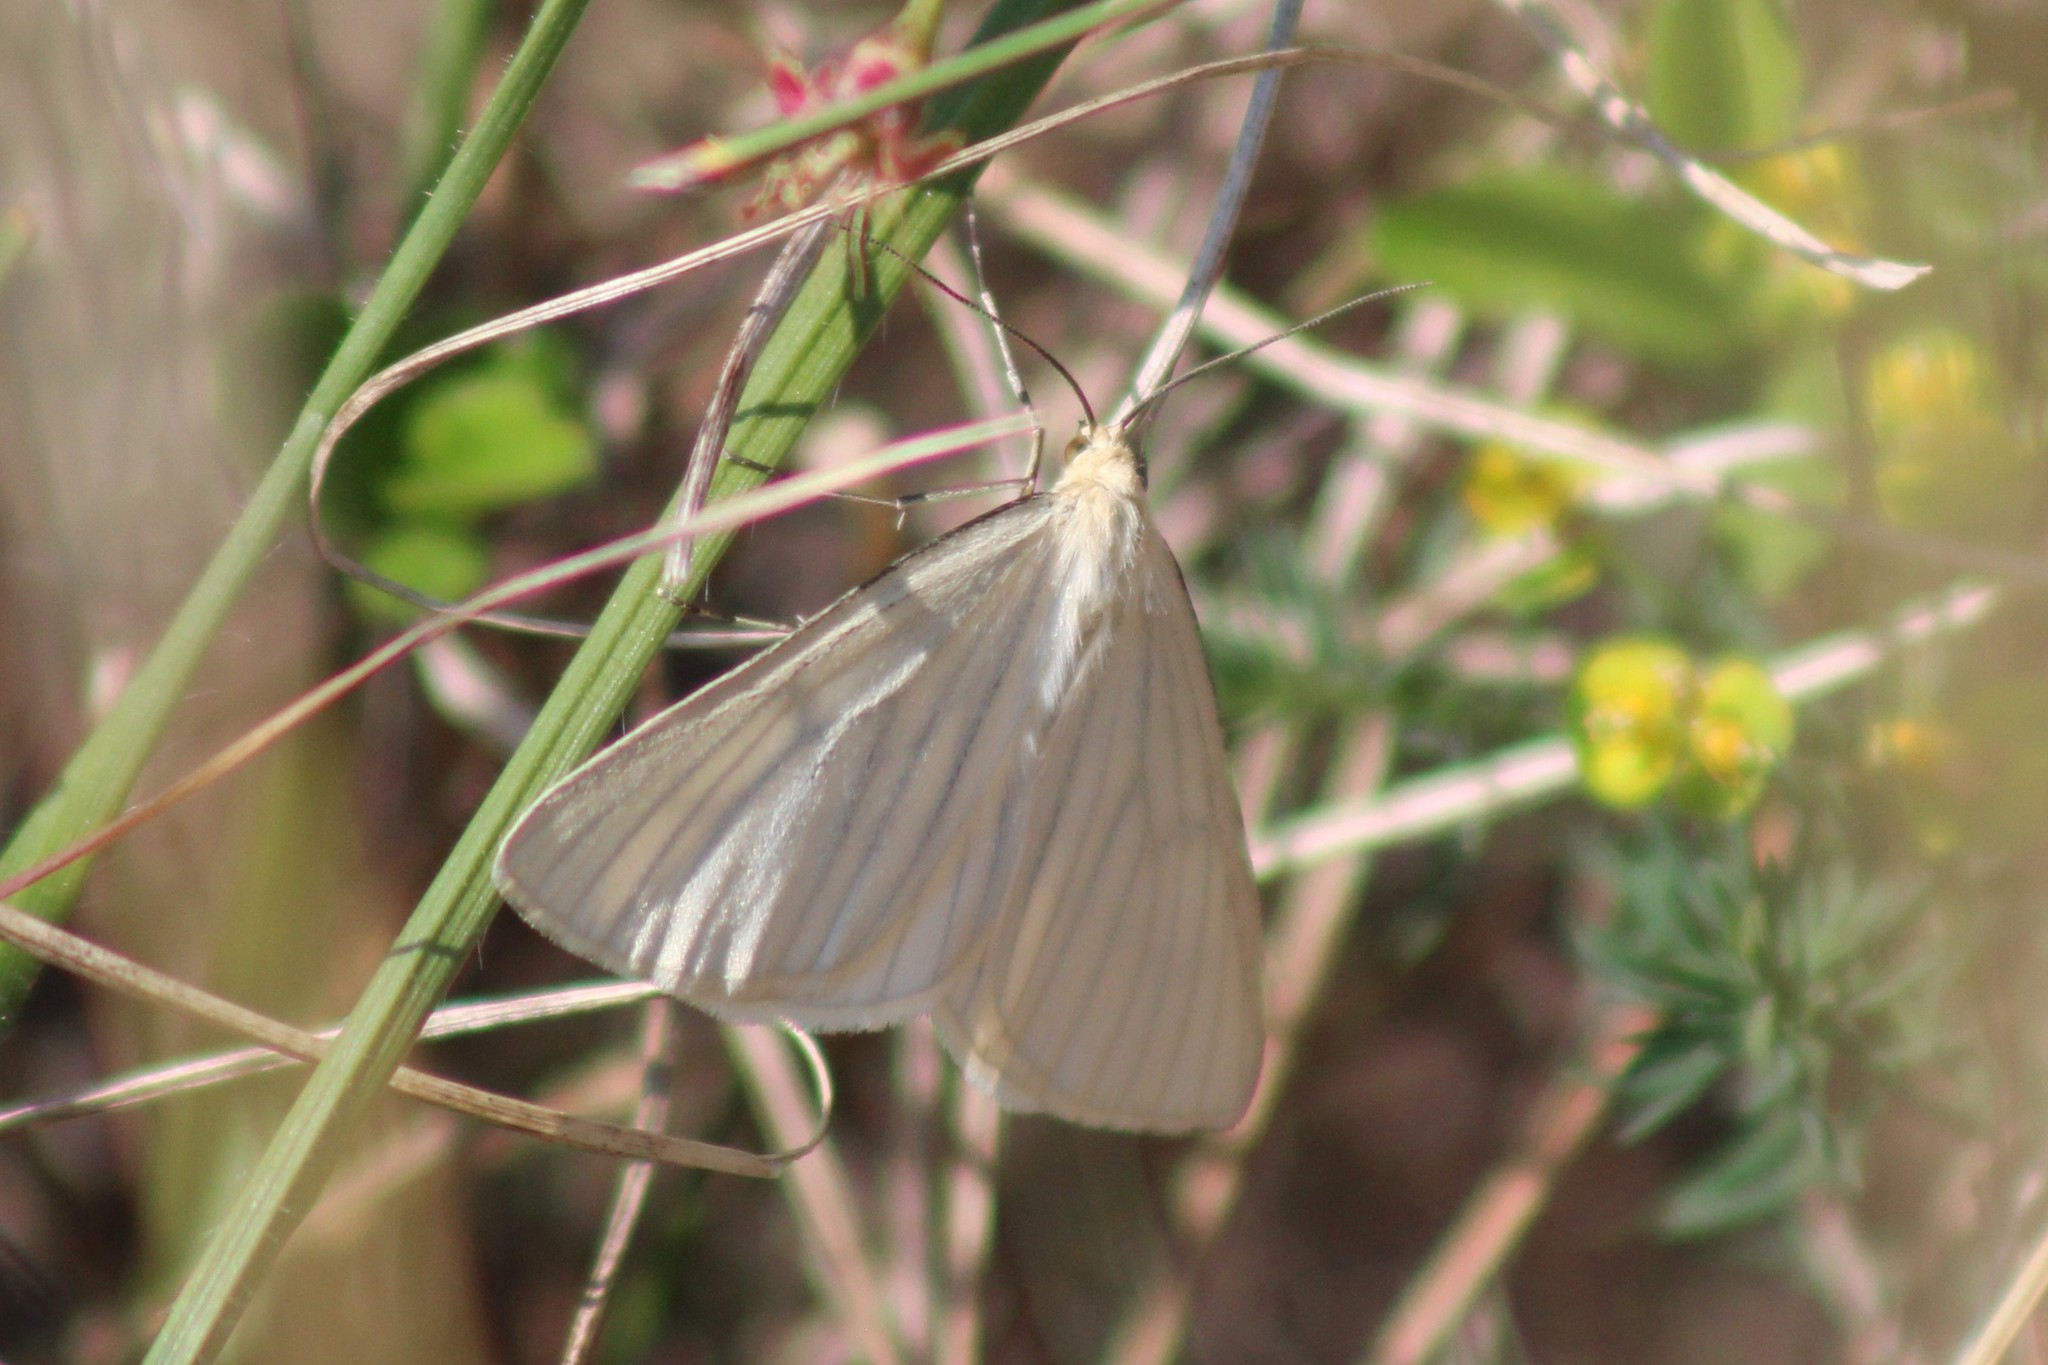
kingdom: Animalia
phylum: Arthropoda
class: Insecta
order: Lepidoptera
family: Geometridae
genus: Siona
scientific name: Siona lineata
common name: Black-veined moth
